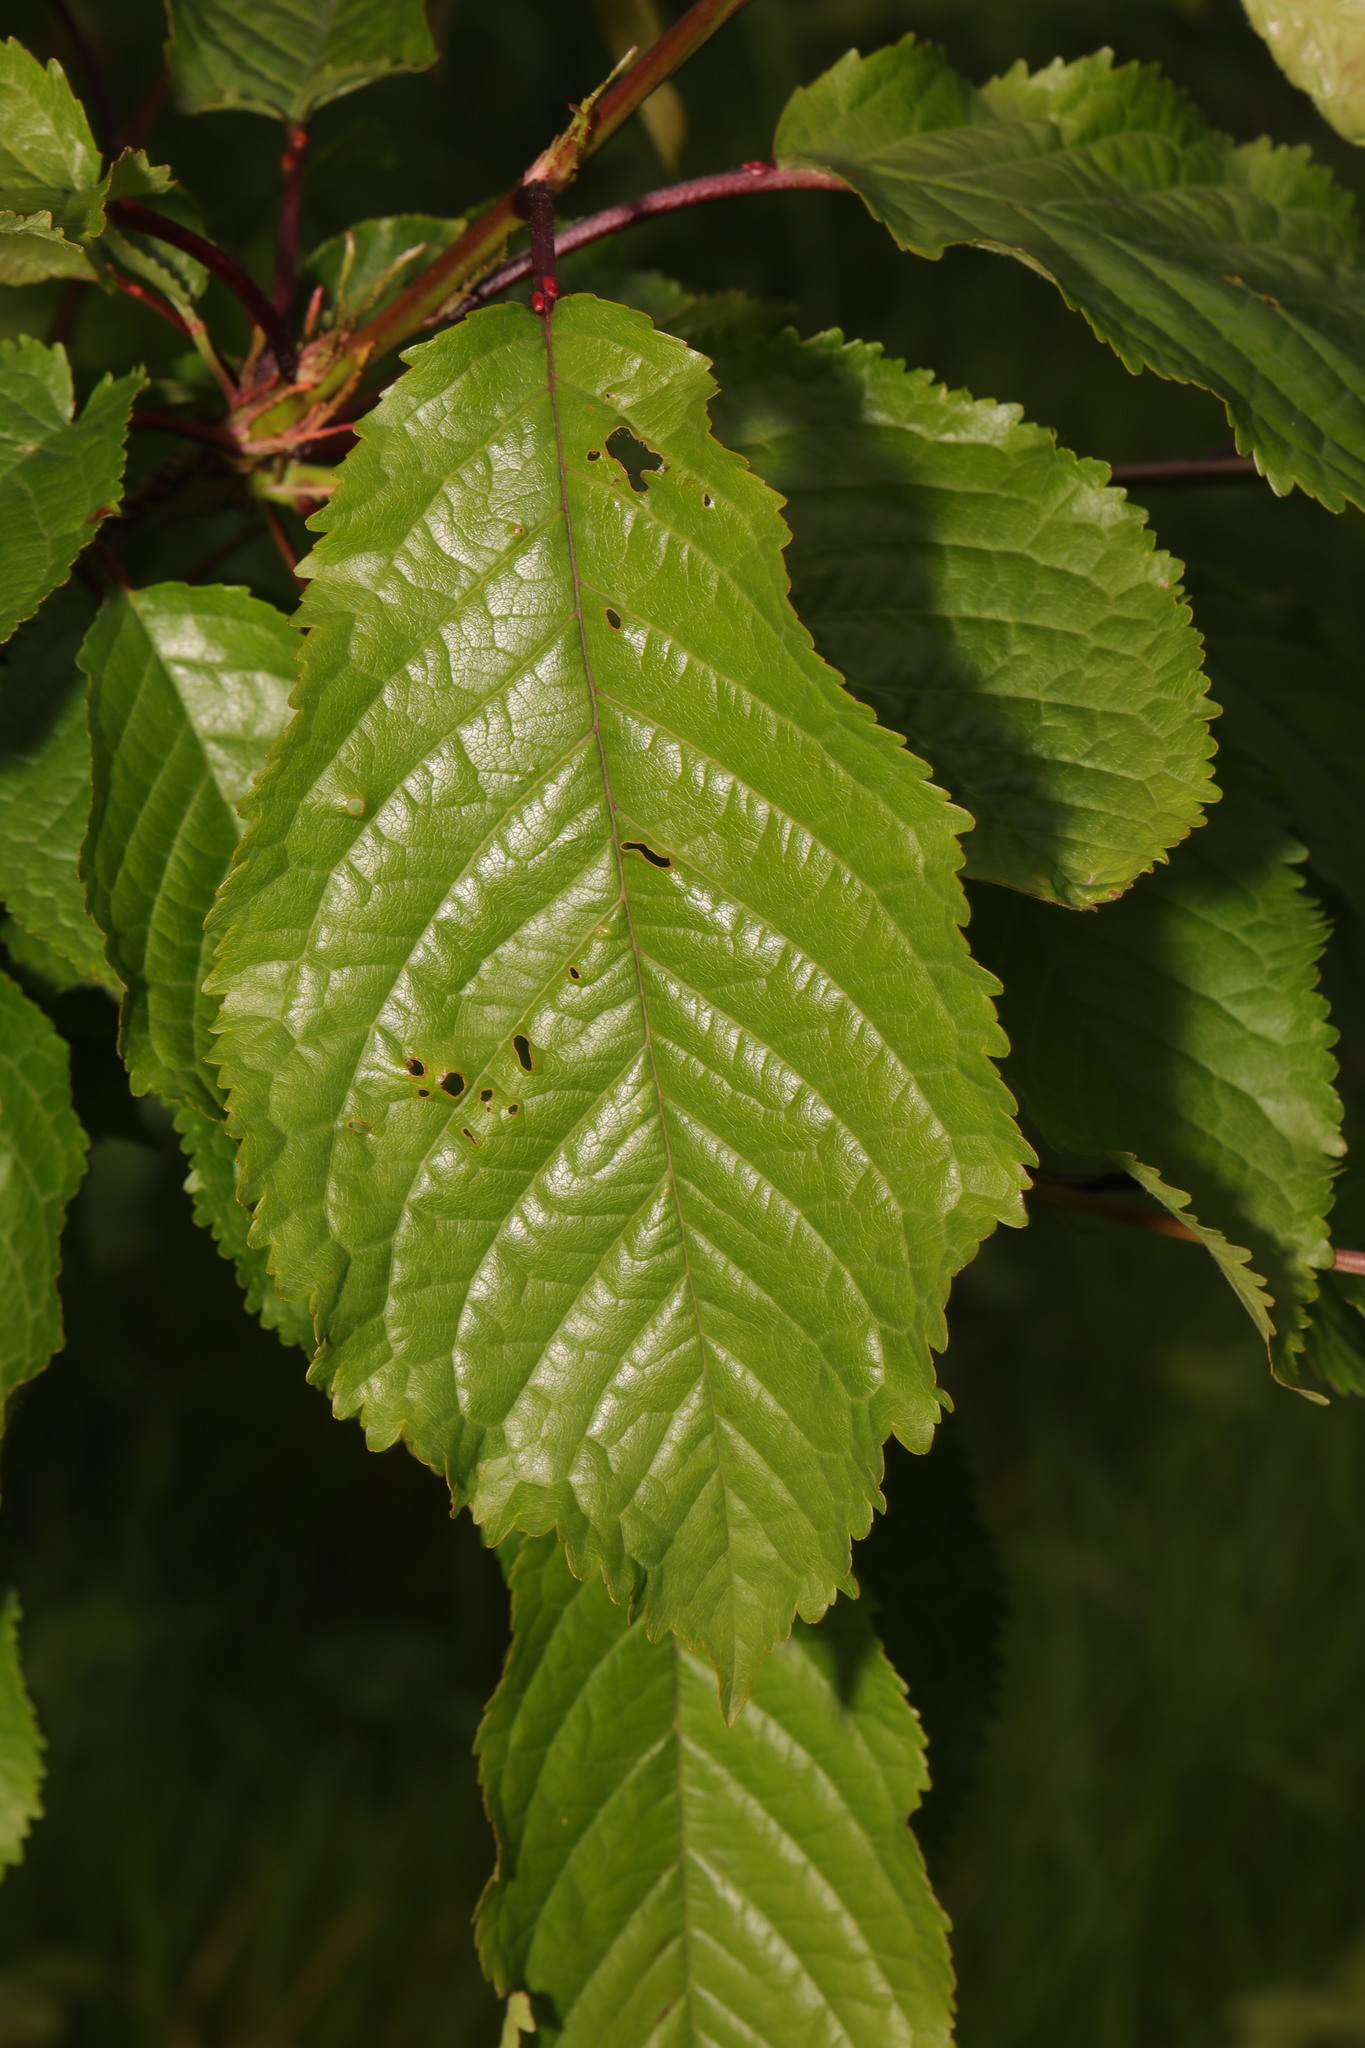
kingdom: Plantae
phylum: Tracheophyta
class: Magnoliopsida
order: Rosales
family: Rosaceae
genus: Prunus
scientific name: Prunus avium
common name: Sweet cherry
